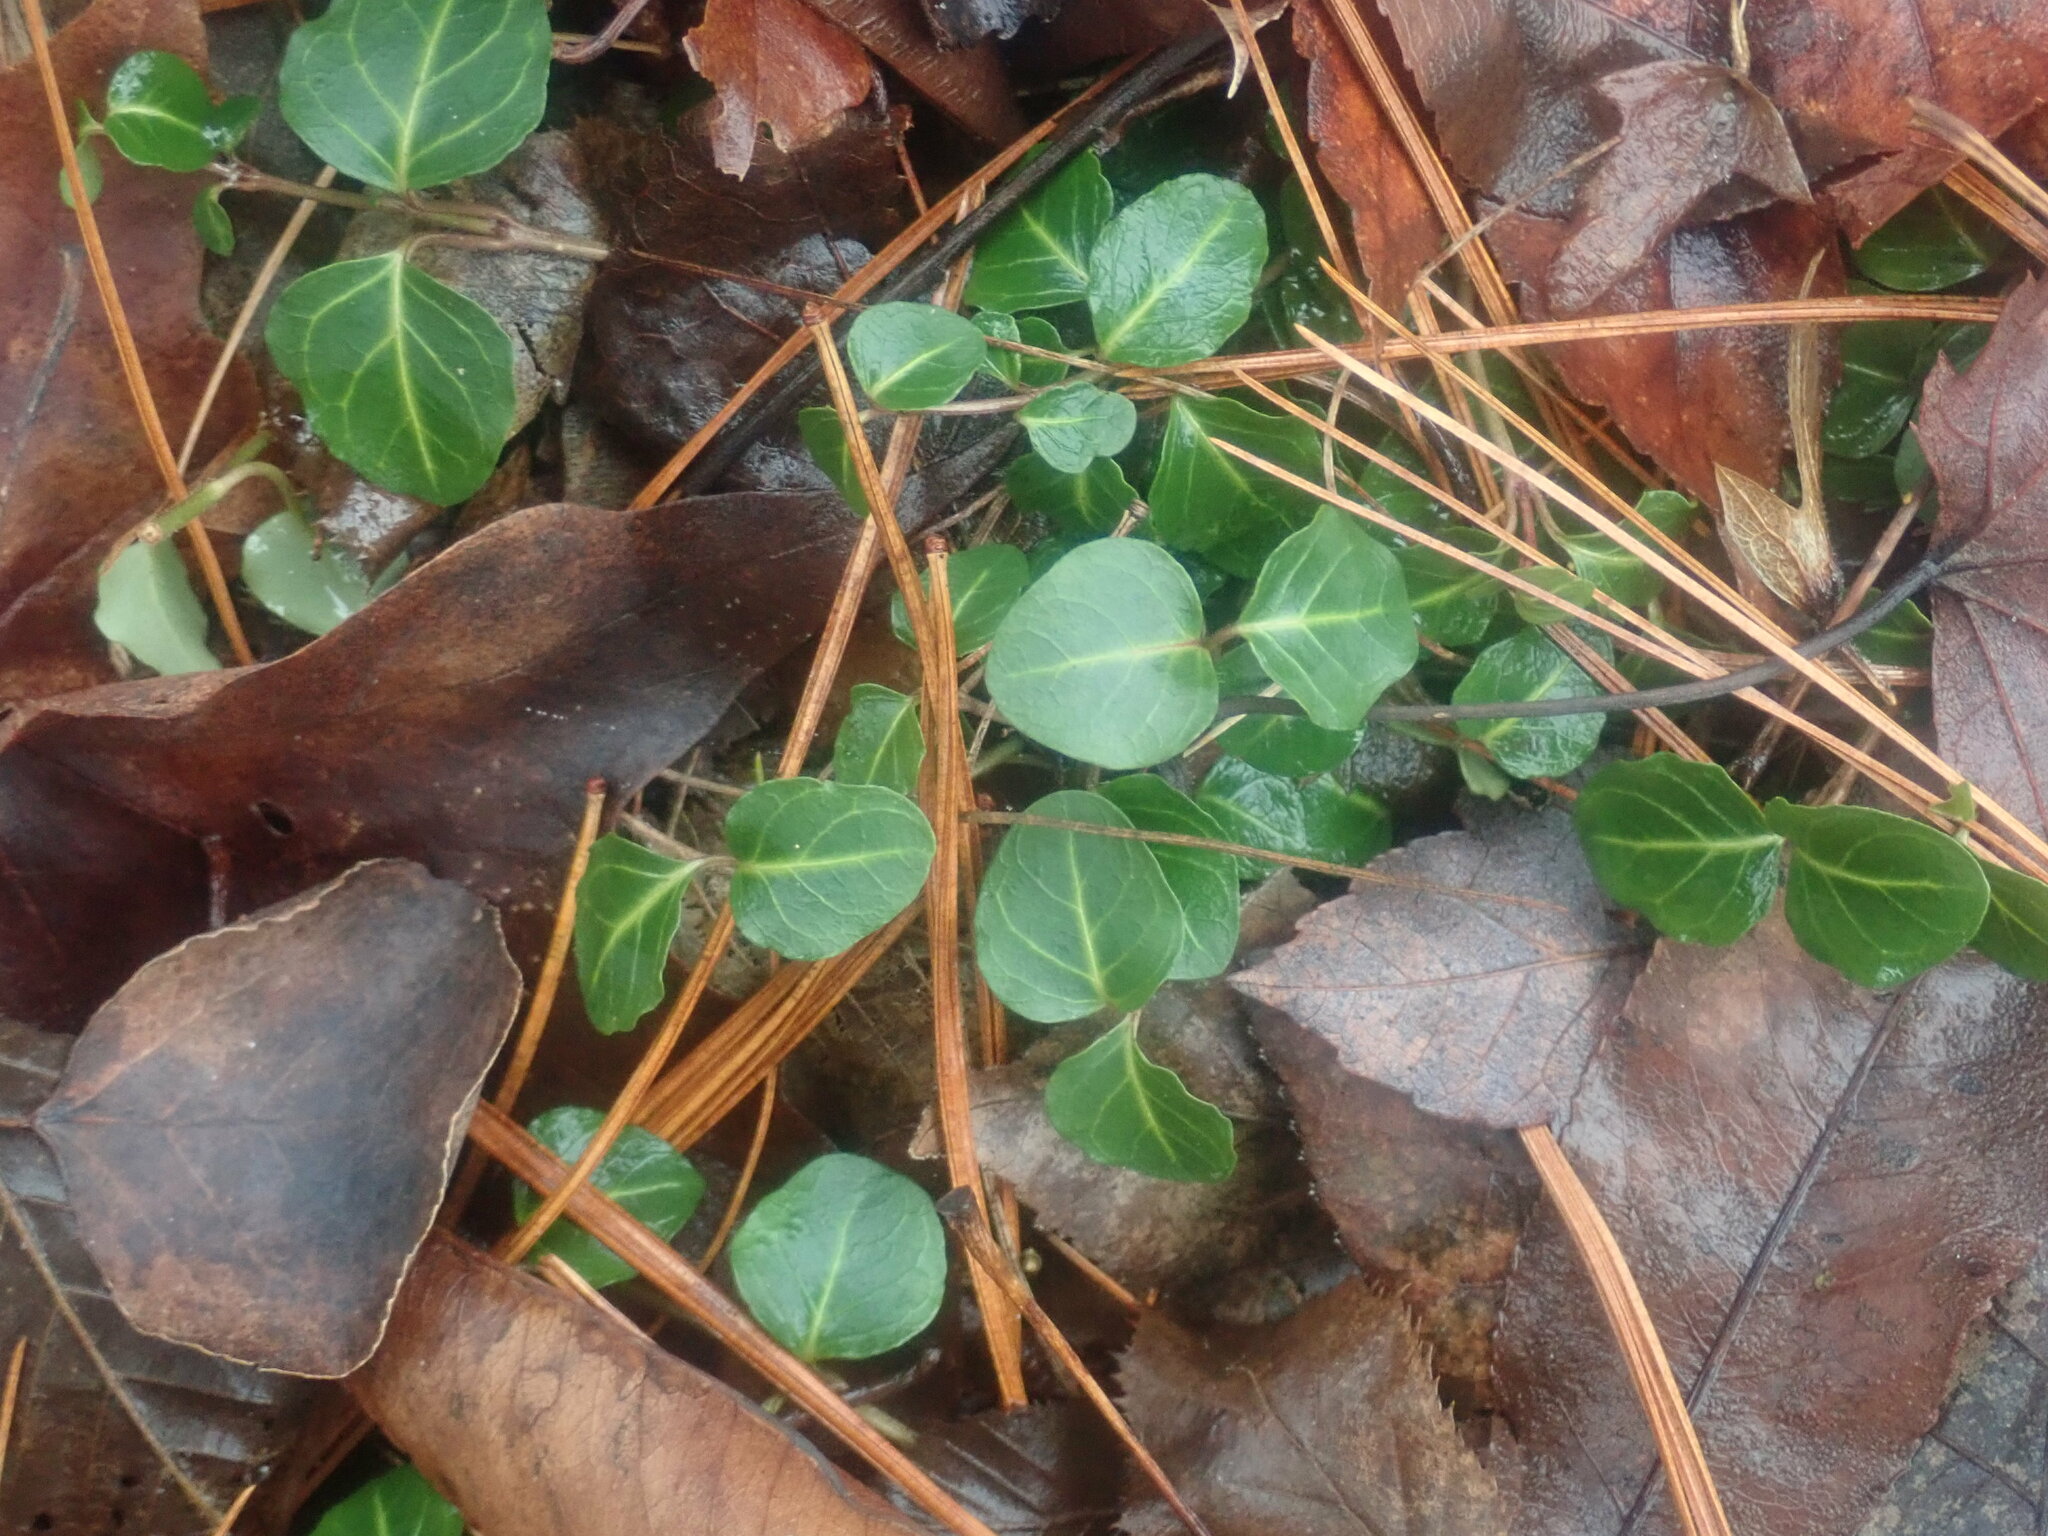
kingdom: Plantae
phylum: Tracheophyta
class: Magnoliopsida
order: Gentianales
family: Rubiaceae
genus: Mitchella
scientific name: Mitchella repens
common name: Partridge-berry
